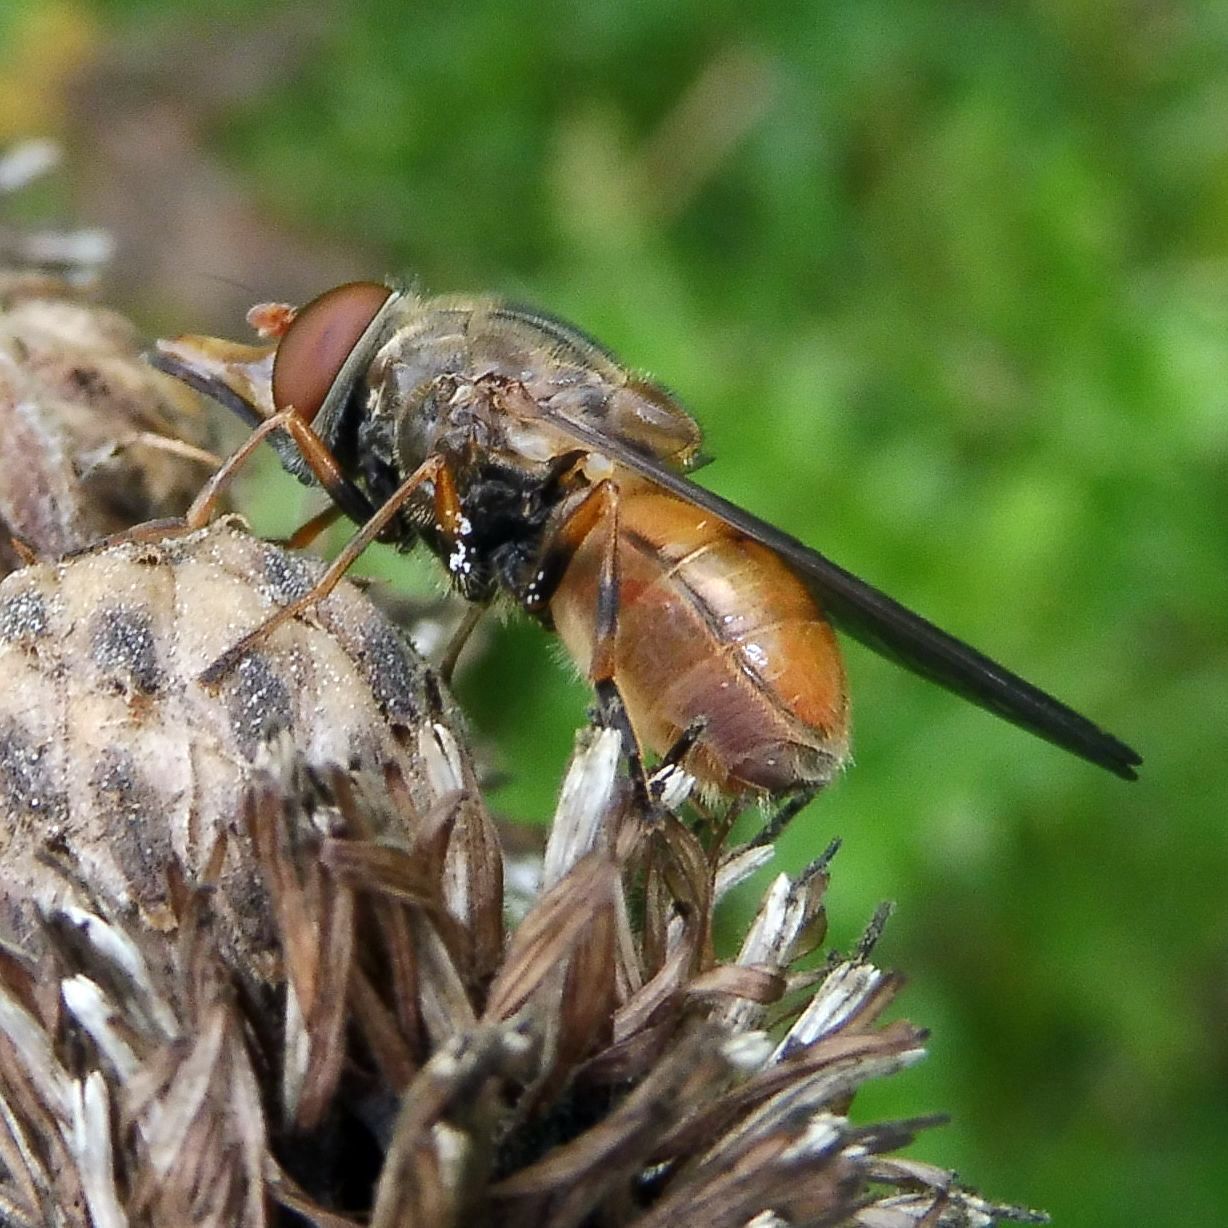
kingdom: Animalia
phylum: Arthropoda
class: Insecta
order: Diptera
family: Syrphidae
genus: Rhingia
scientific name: Rhingia campestris
